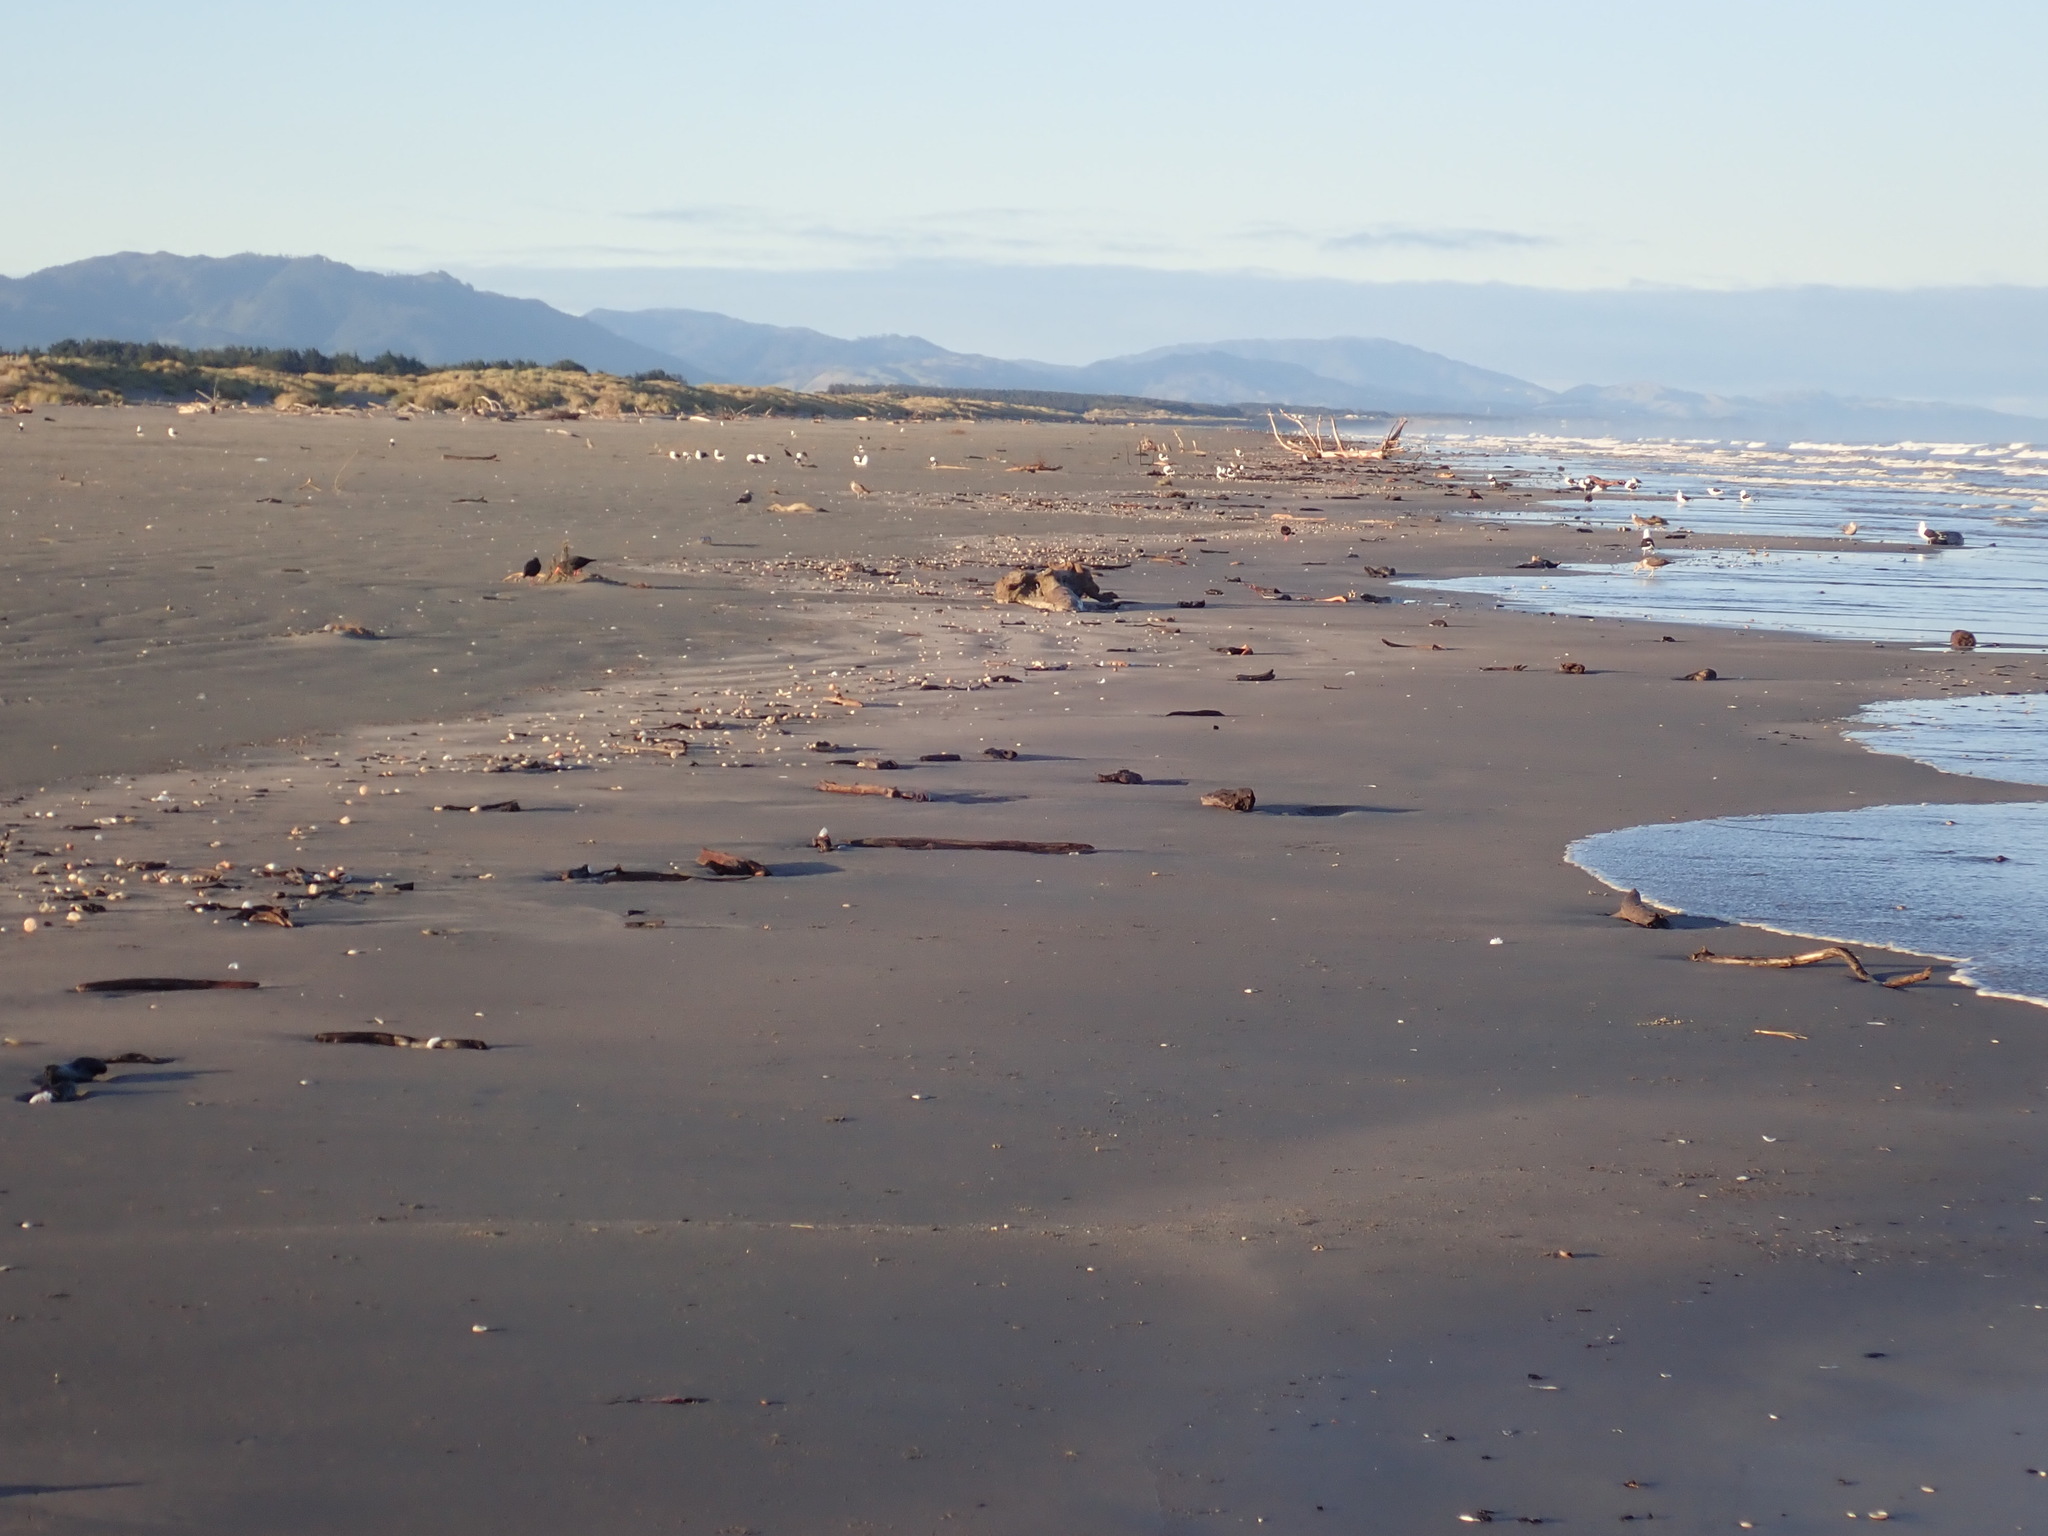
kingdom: Animalia
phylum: Chordata
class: Aves
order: Charadriiformes
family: Haematopodidae
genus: Haematopus
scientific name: Haematopus unicolor
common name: Variable oystercatcher
